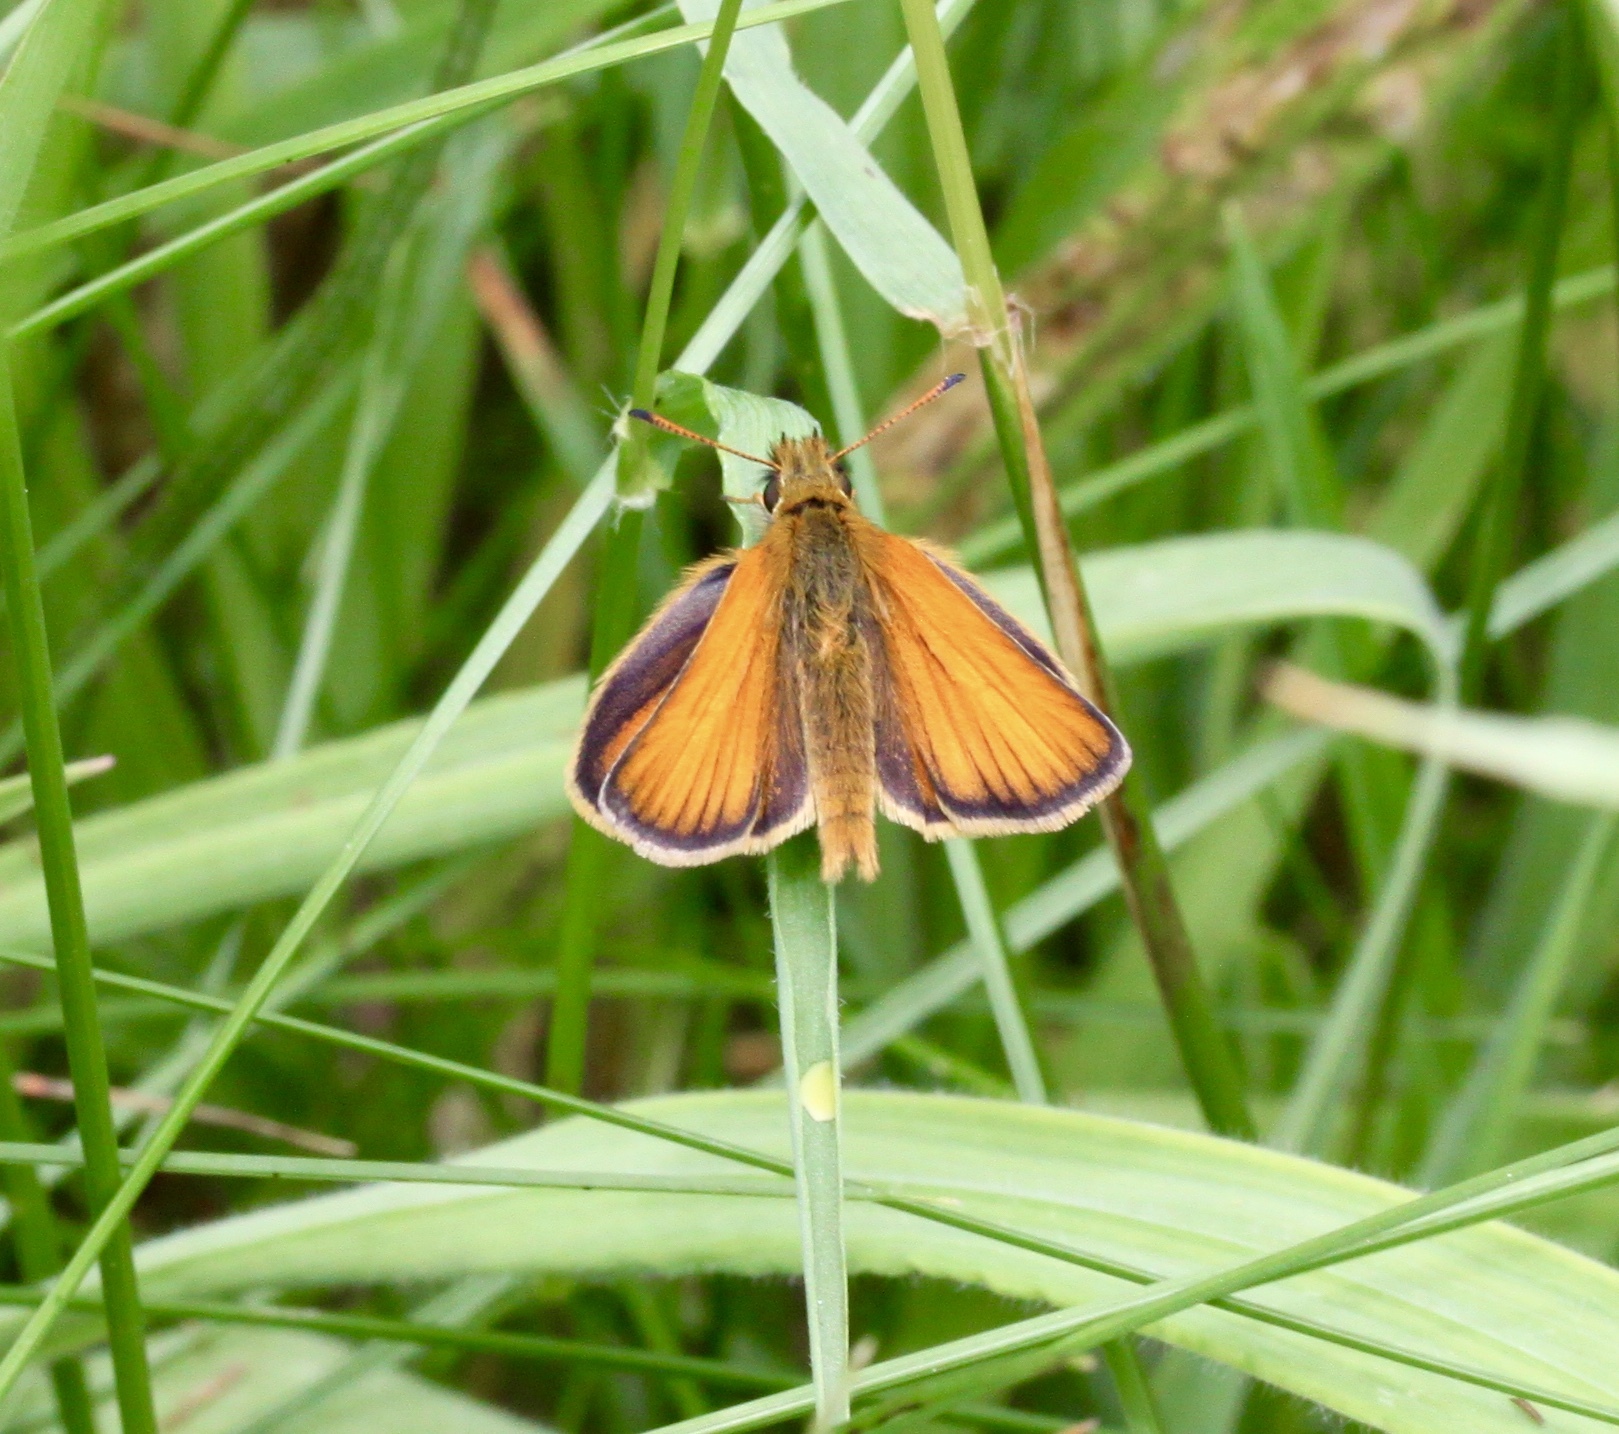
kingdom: Animalia
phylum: Arthropoda
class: Insecta
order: Lepidoptera
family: Hesperiidae
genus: Thymelicus
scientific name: Thymelicus lineola
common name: Essex skipper
